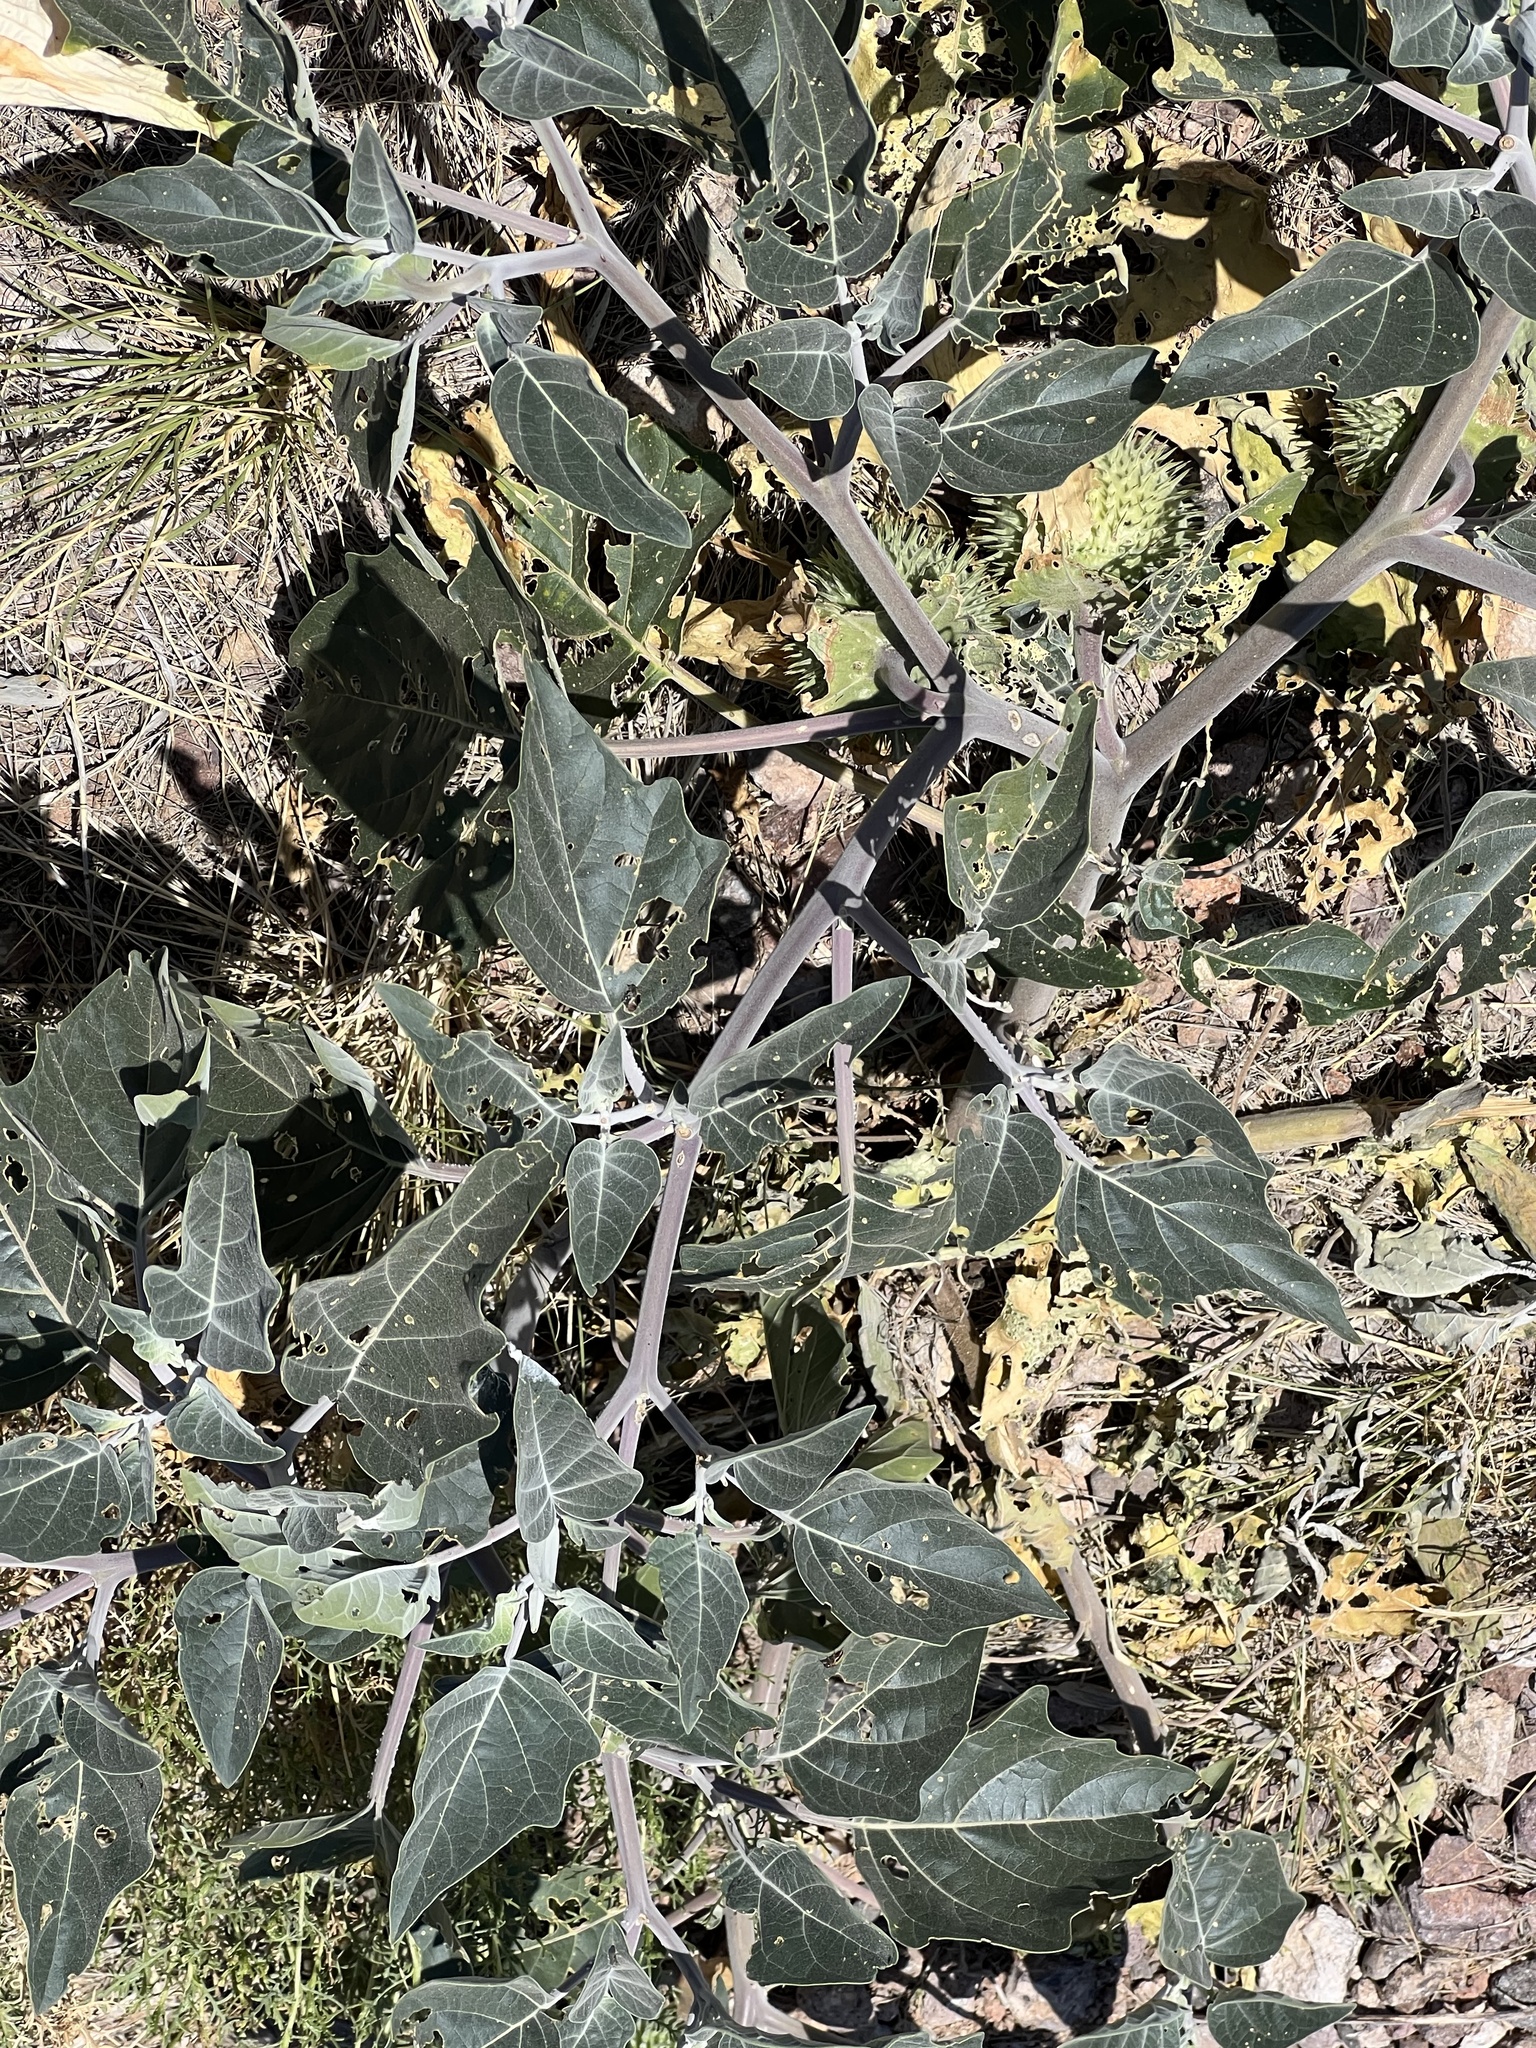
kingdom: Plantae
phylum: Tracheophyta
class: Magnoliopsida
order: Solanales
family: Solanaceae
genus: Datura
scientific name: Datura wrightii
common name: Sacred thorn-apple
